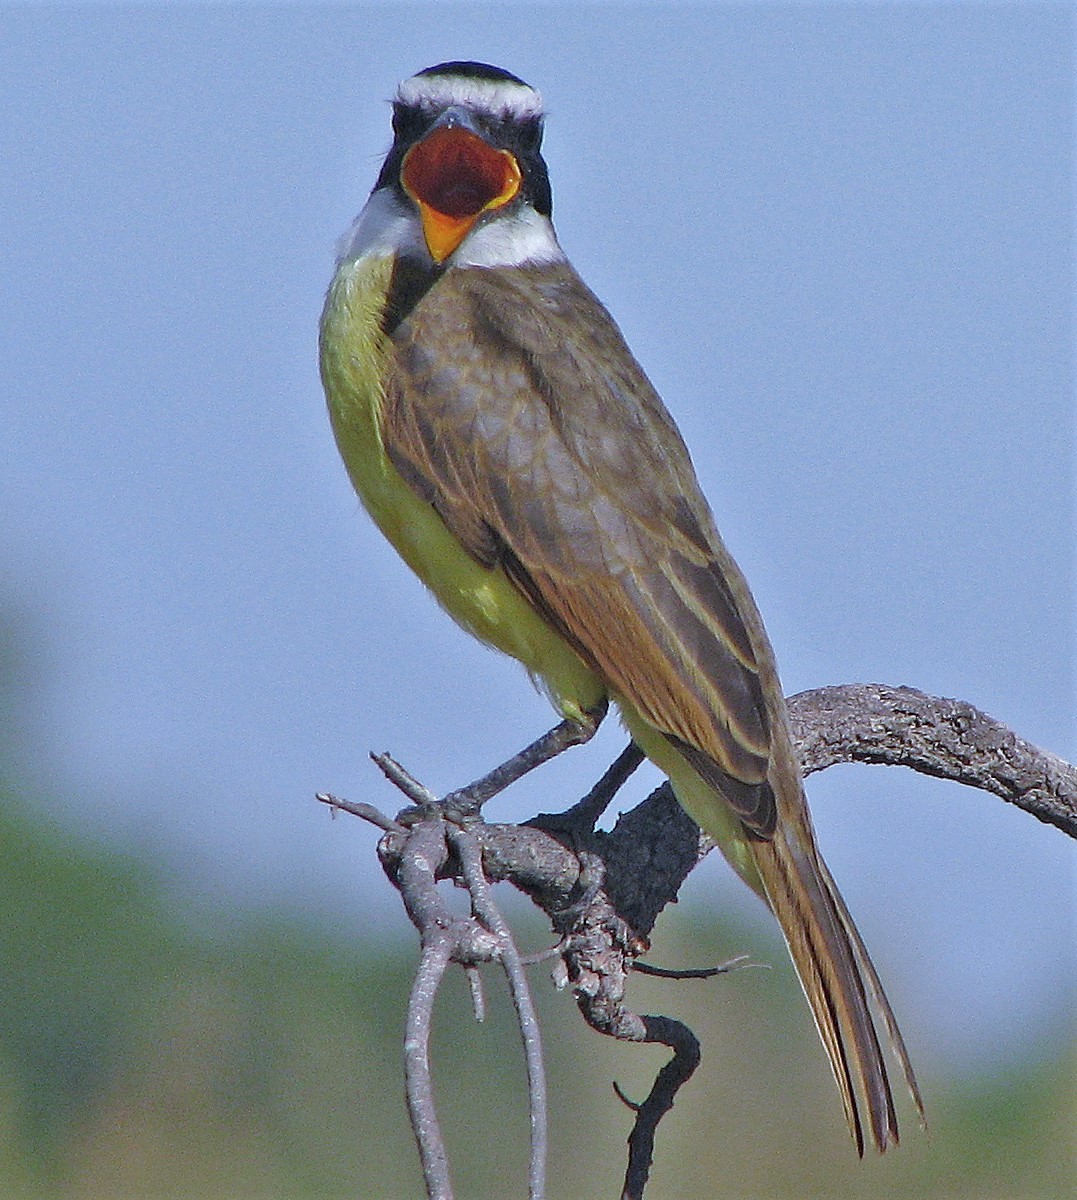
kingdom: Animalia
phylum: Chordata
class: Aves
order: Passeriformes
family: Tyrannidae
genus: Pitangus
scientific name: Pitangus sulphuratus
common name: Great kiskadee
